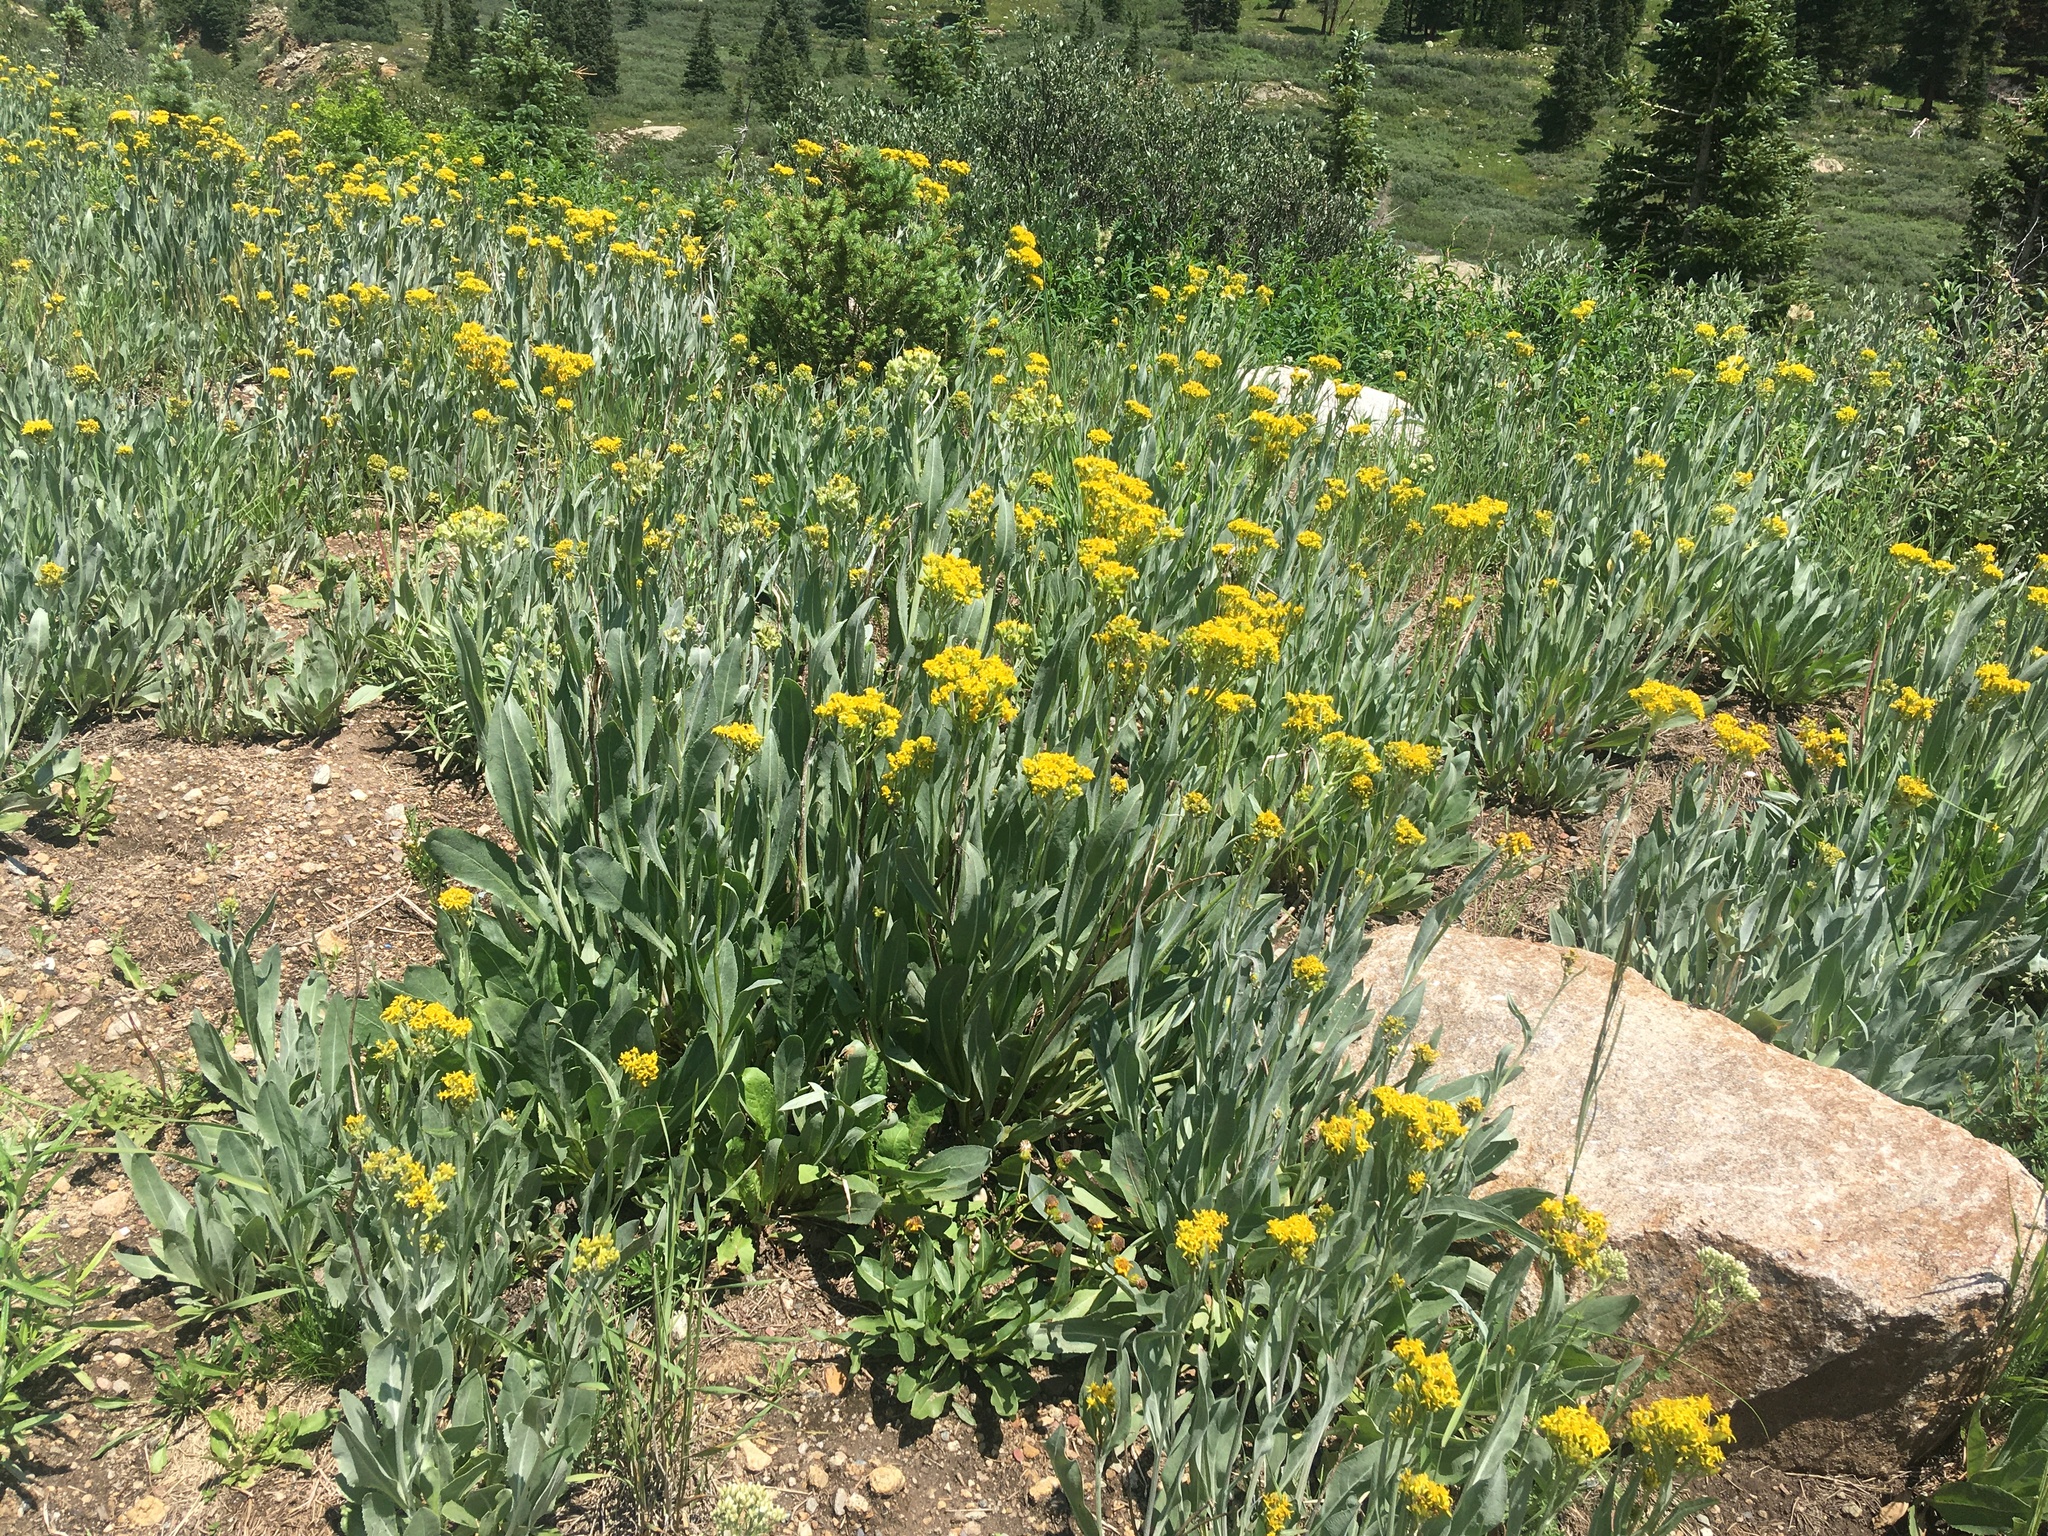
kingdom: Plantae
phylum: Tracheophyta
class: Magnoliopsida
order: Asterales
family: Asteraceae
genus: Senecio
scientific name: Senecio atratus
